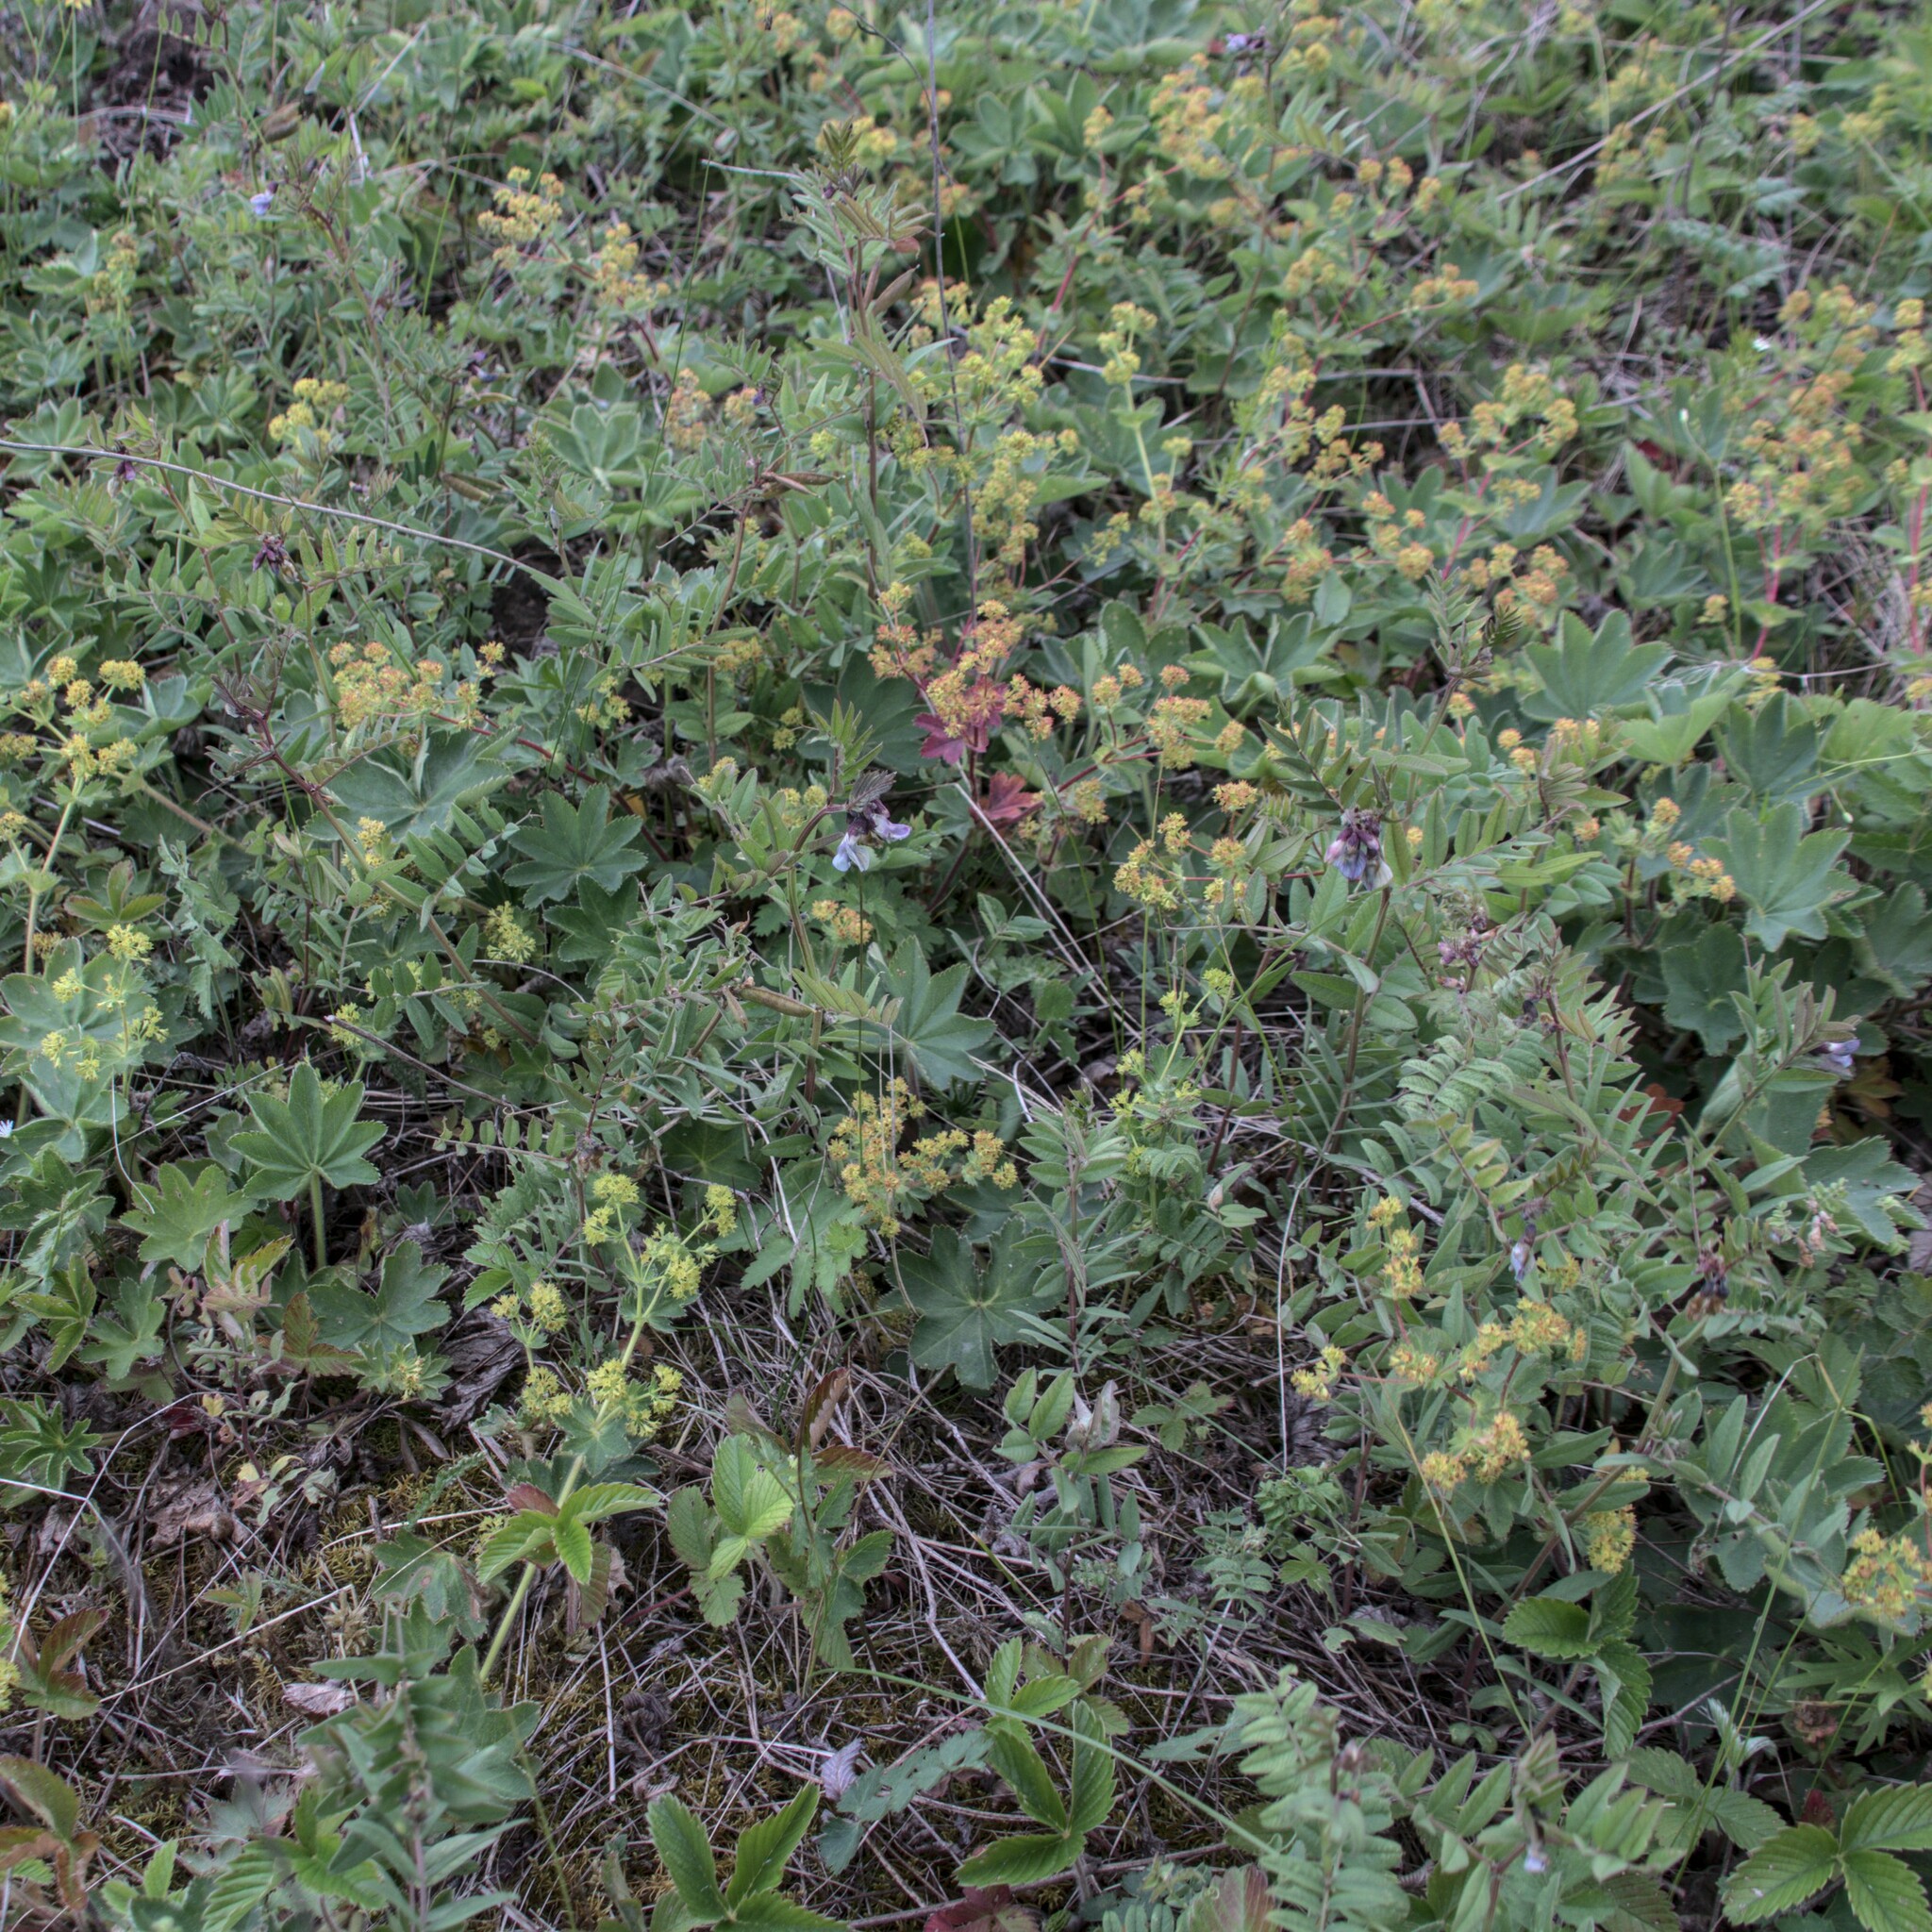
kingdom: Plantae
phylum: Tracheophyta
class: Magnoliopsida
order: Fabales
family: Fabaceae
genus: Vicia
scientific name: Vicia sepium
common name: Bush vetch
